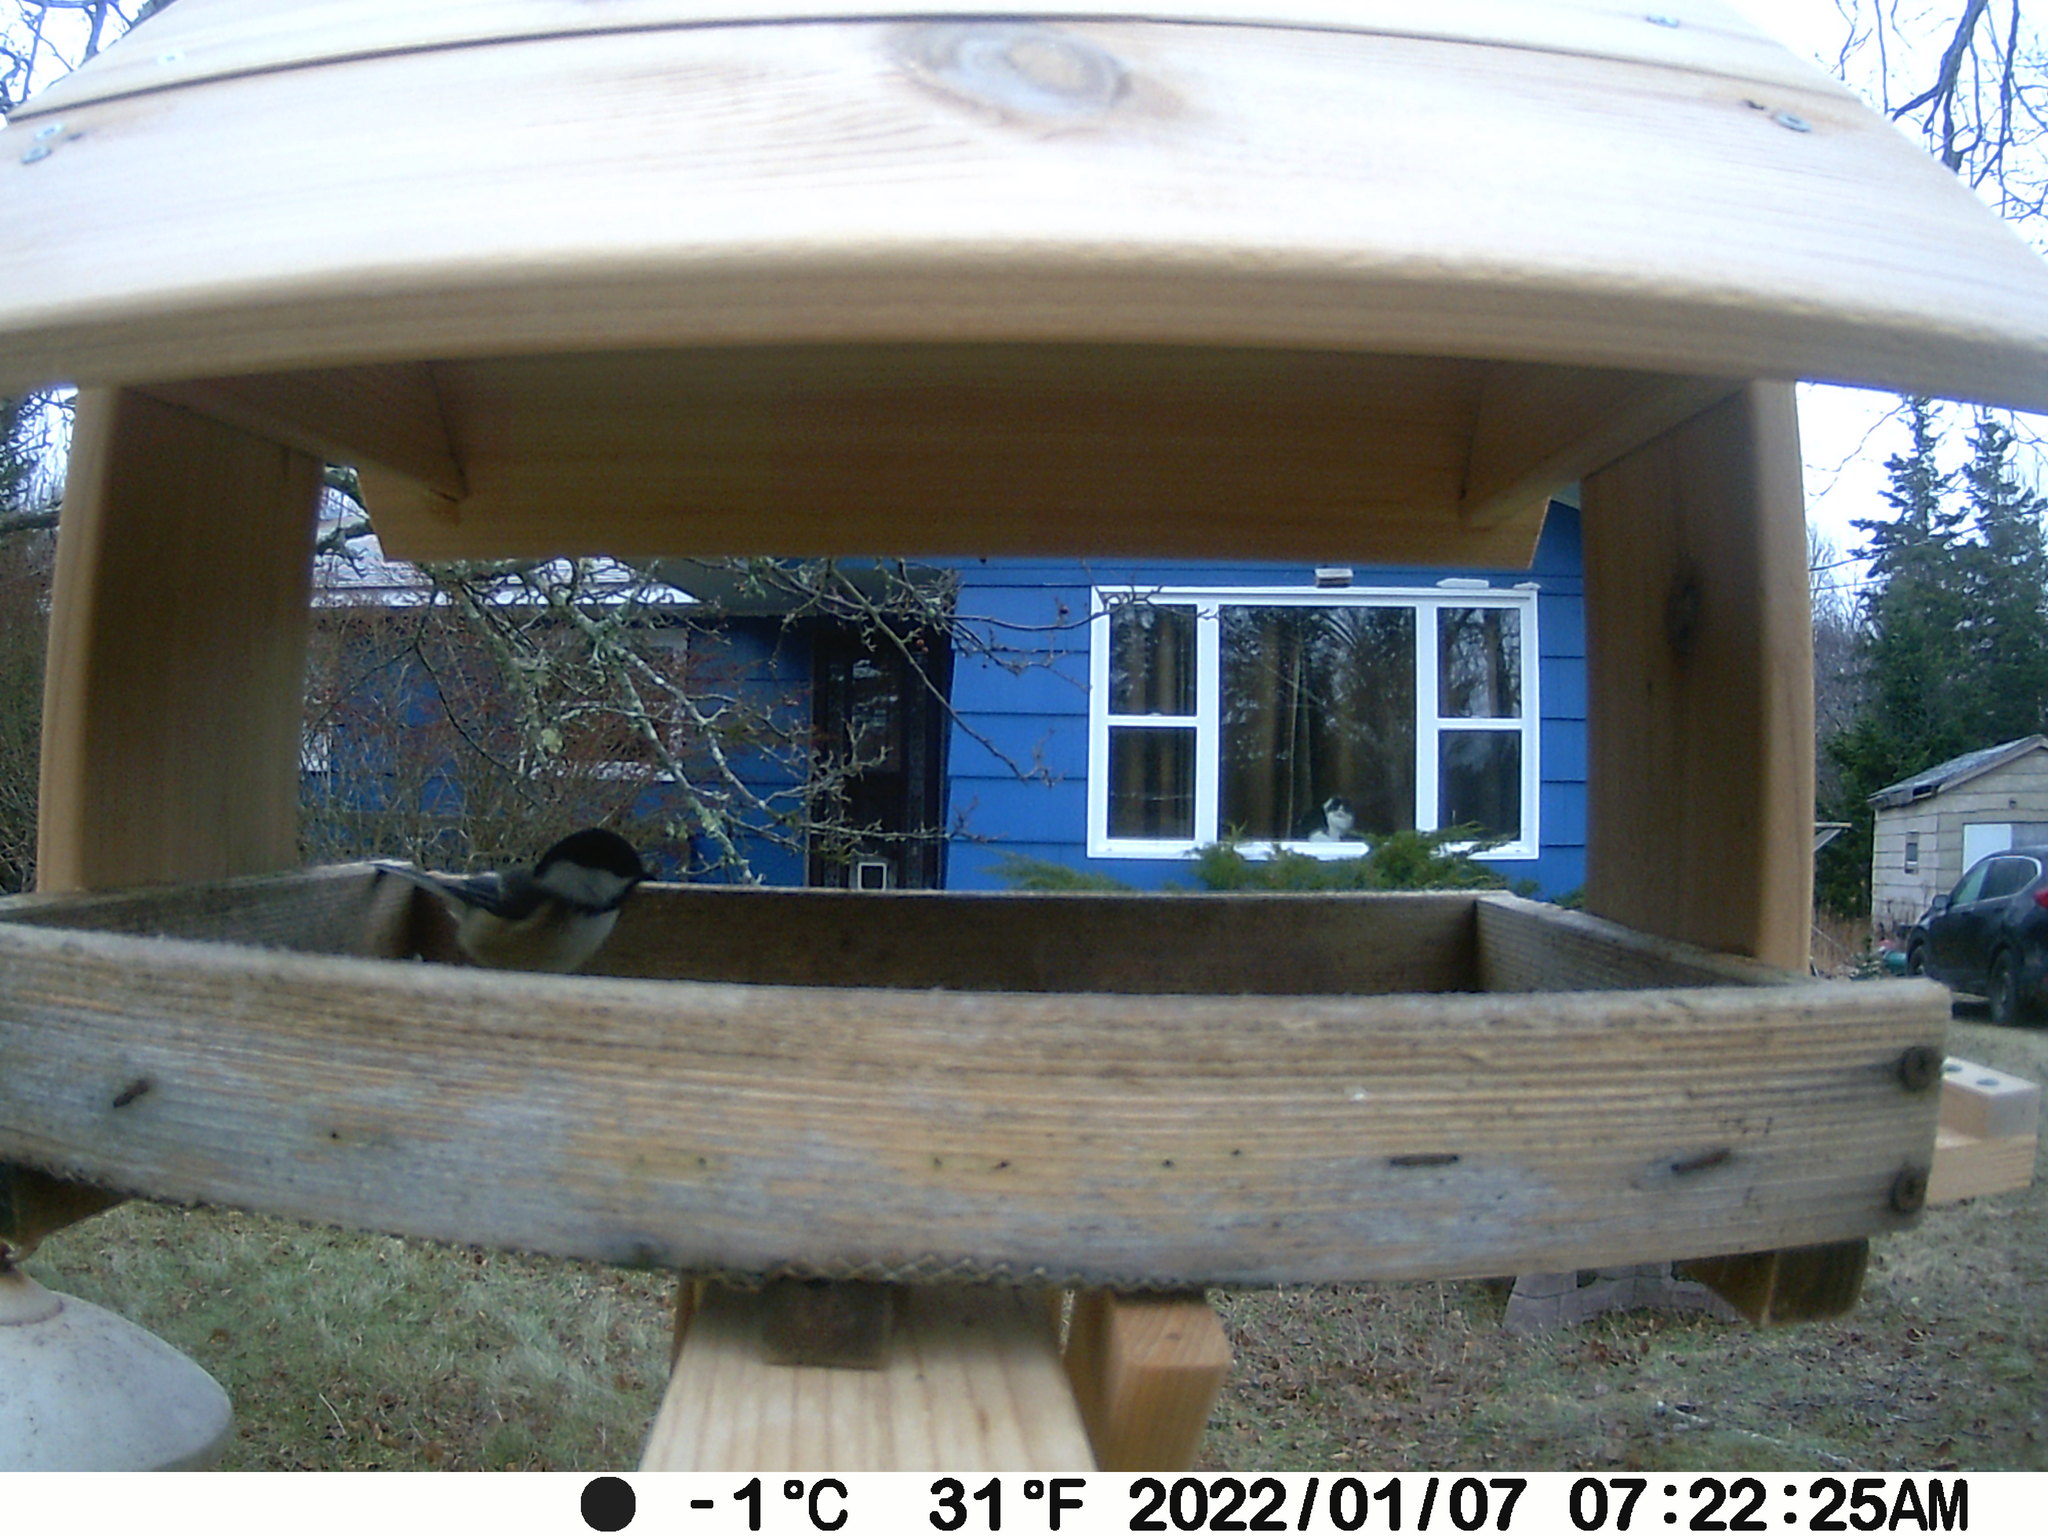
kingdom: Animalia
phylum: Chordata
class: Aves
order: Passeriformes
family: Paridae
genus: Poecile
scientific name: Poecile atricapillus
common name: Black-capped chickadee
